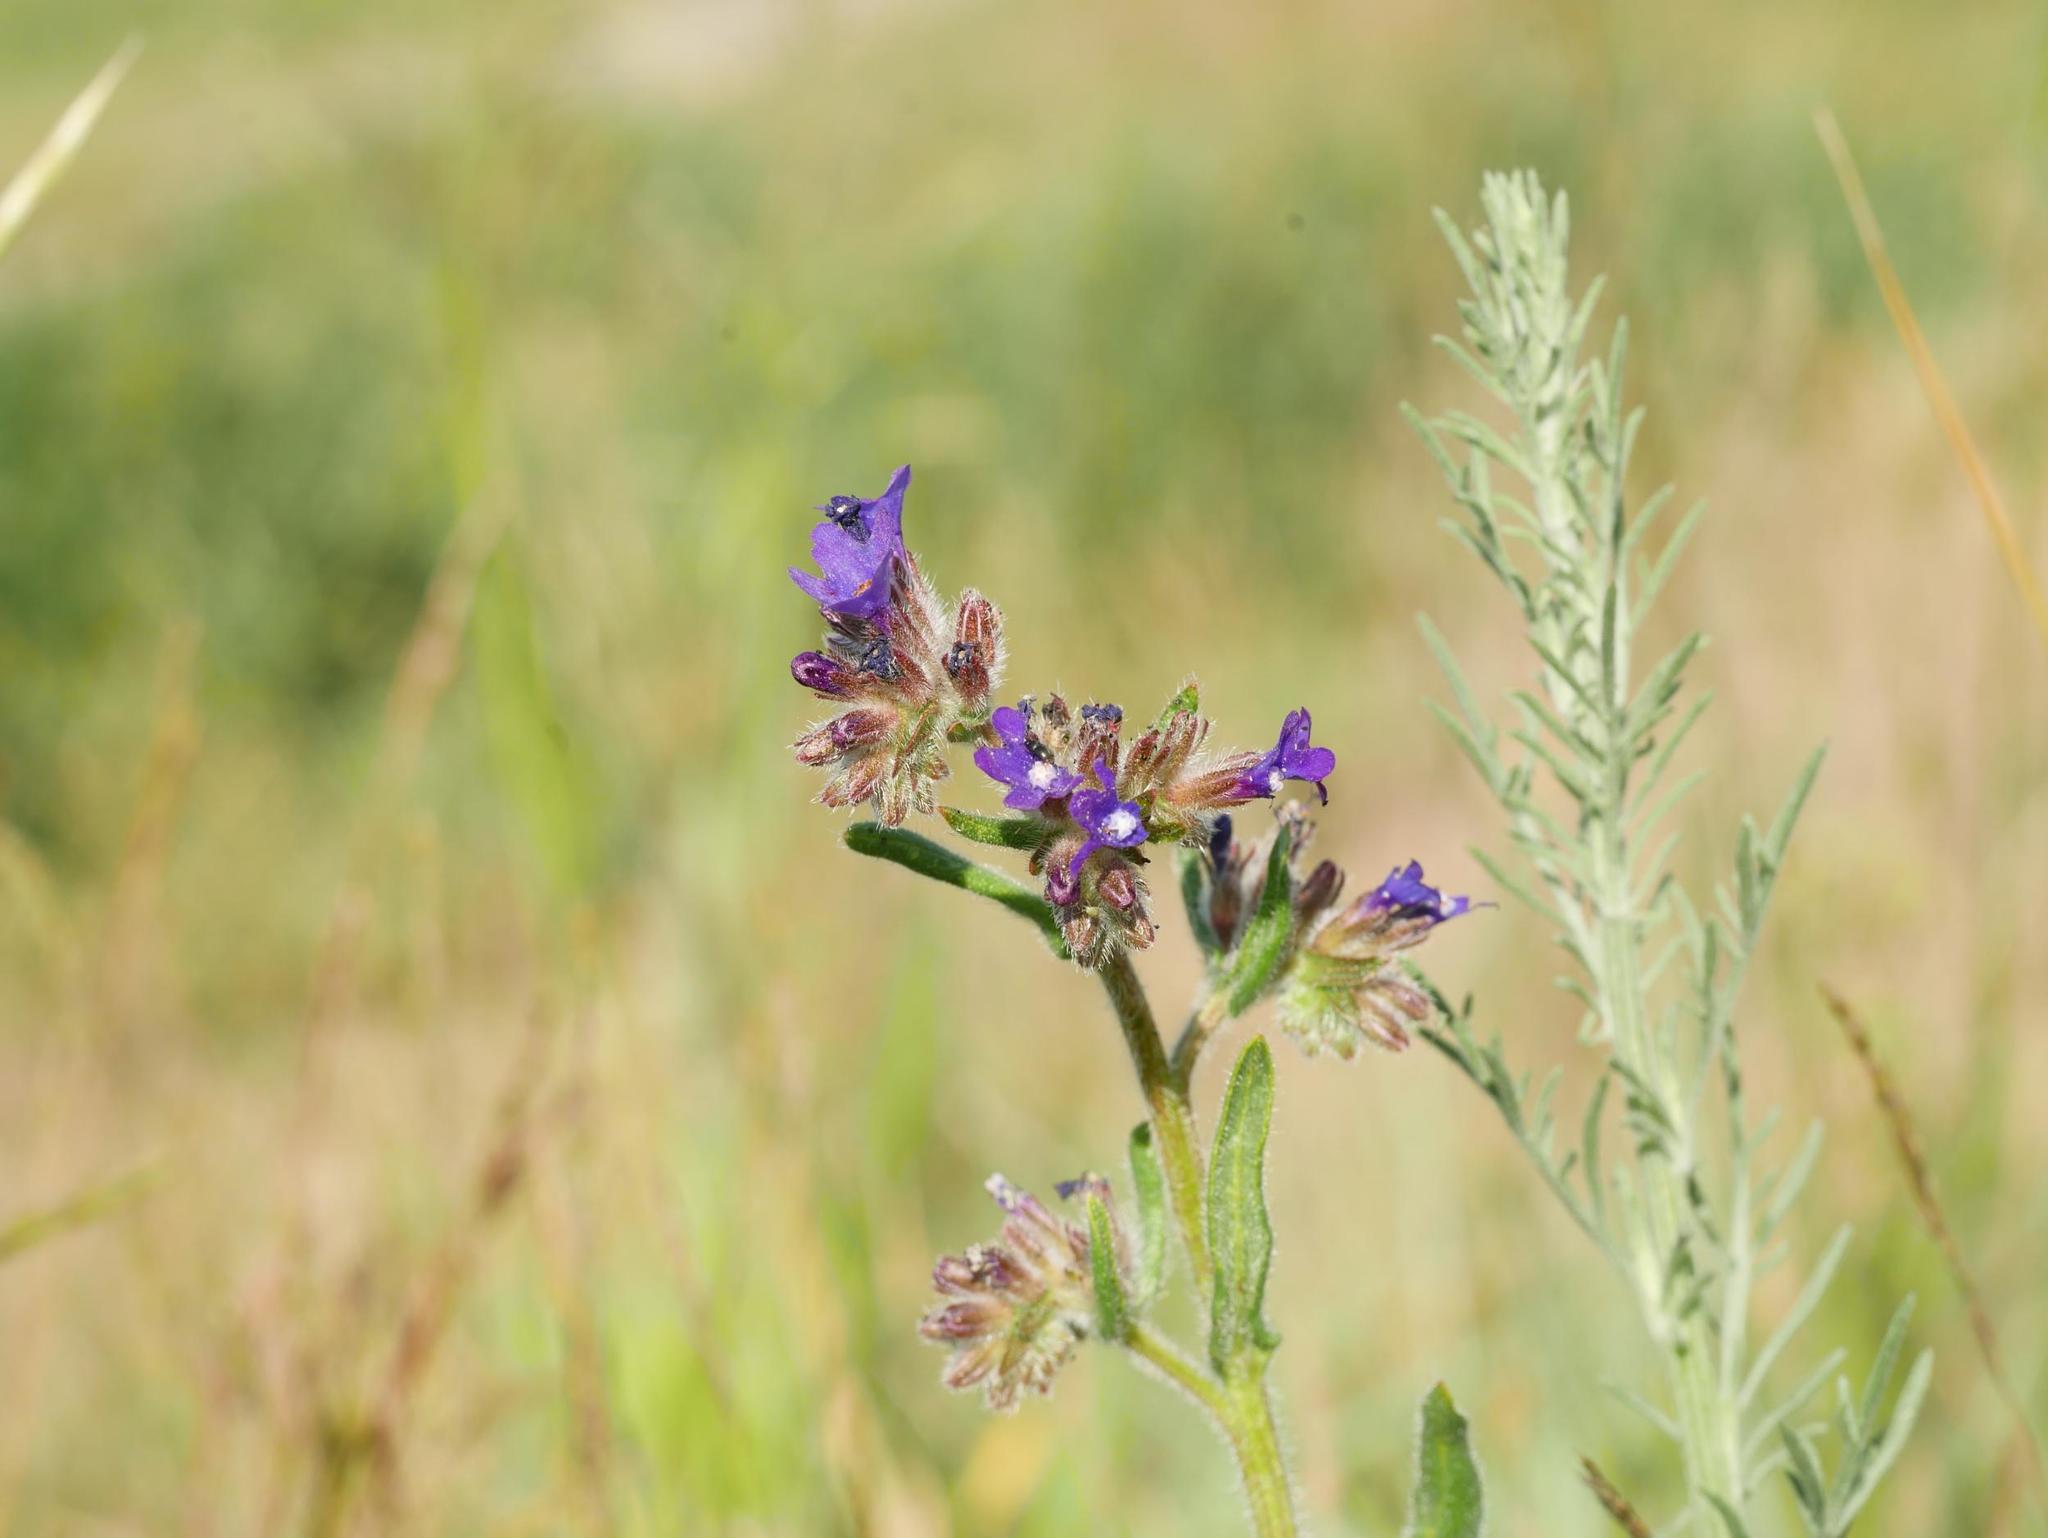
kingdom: Plantae
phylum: Tracheophyta
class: Magnoliopsida
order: Boraginales
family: Boraginaceae
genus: Anchusa
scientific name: Anchusa officinalis
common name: Alkanet
